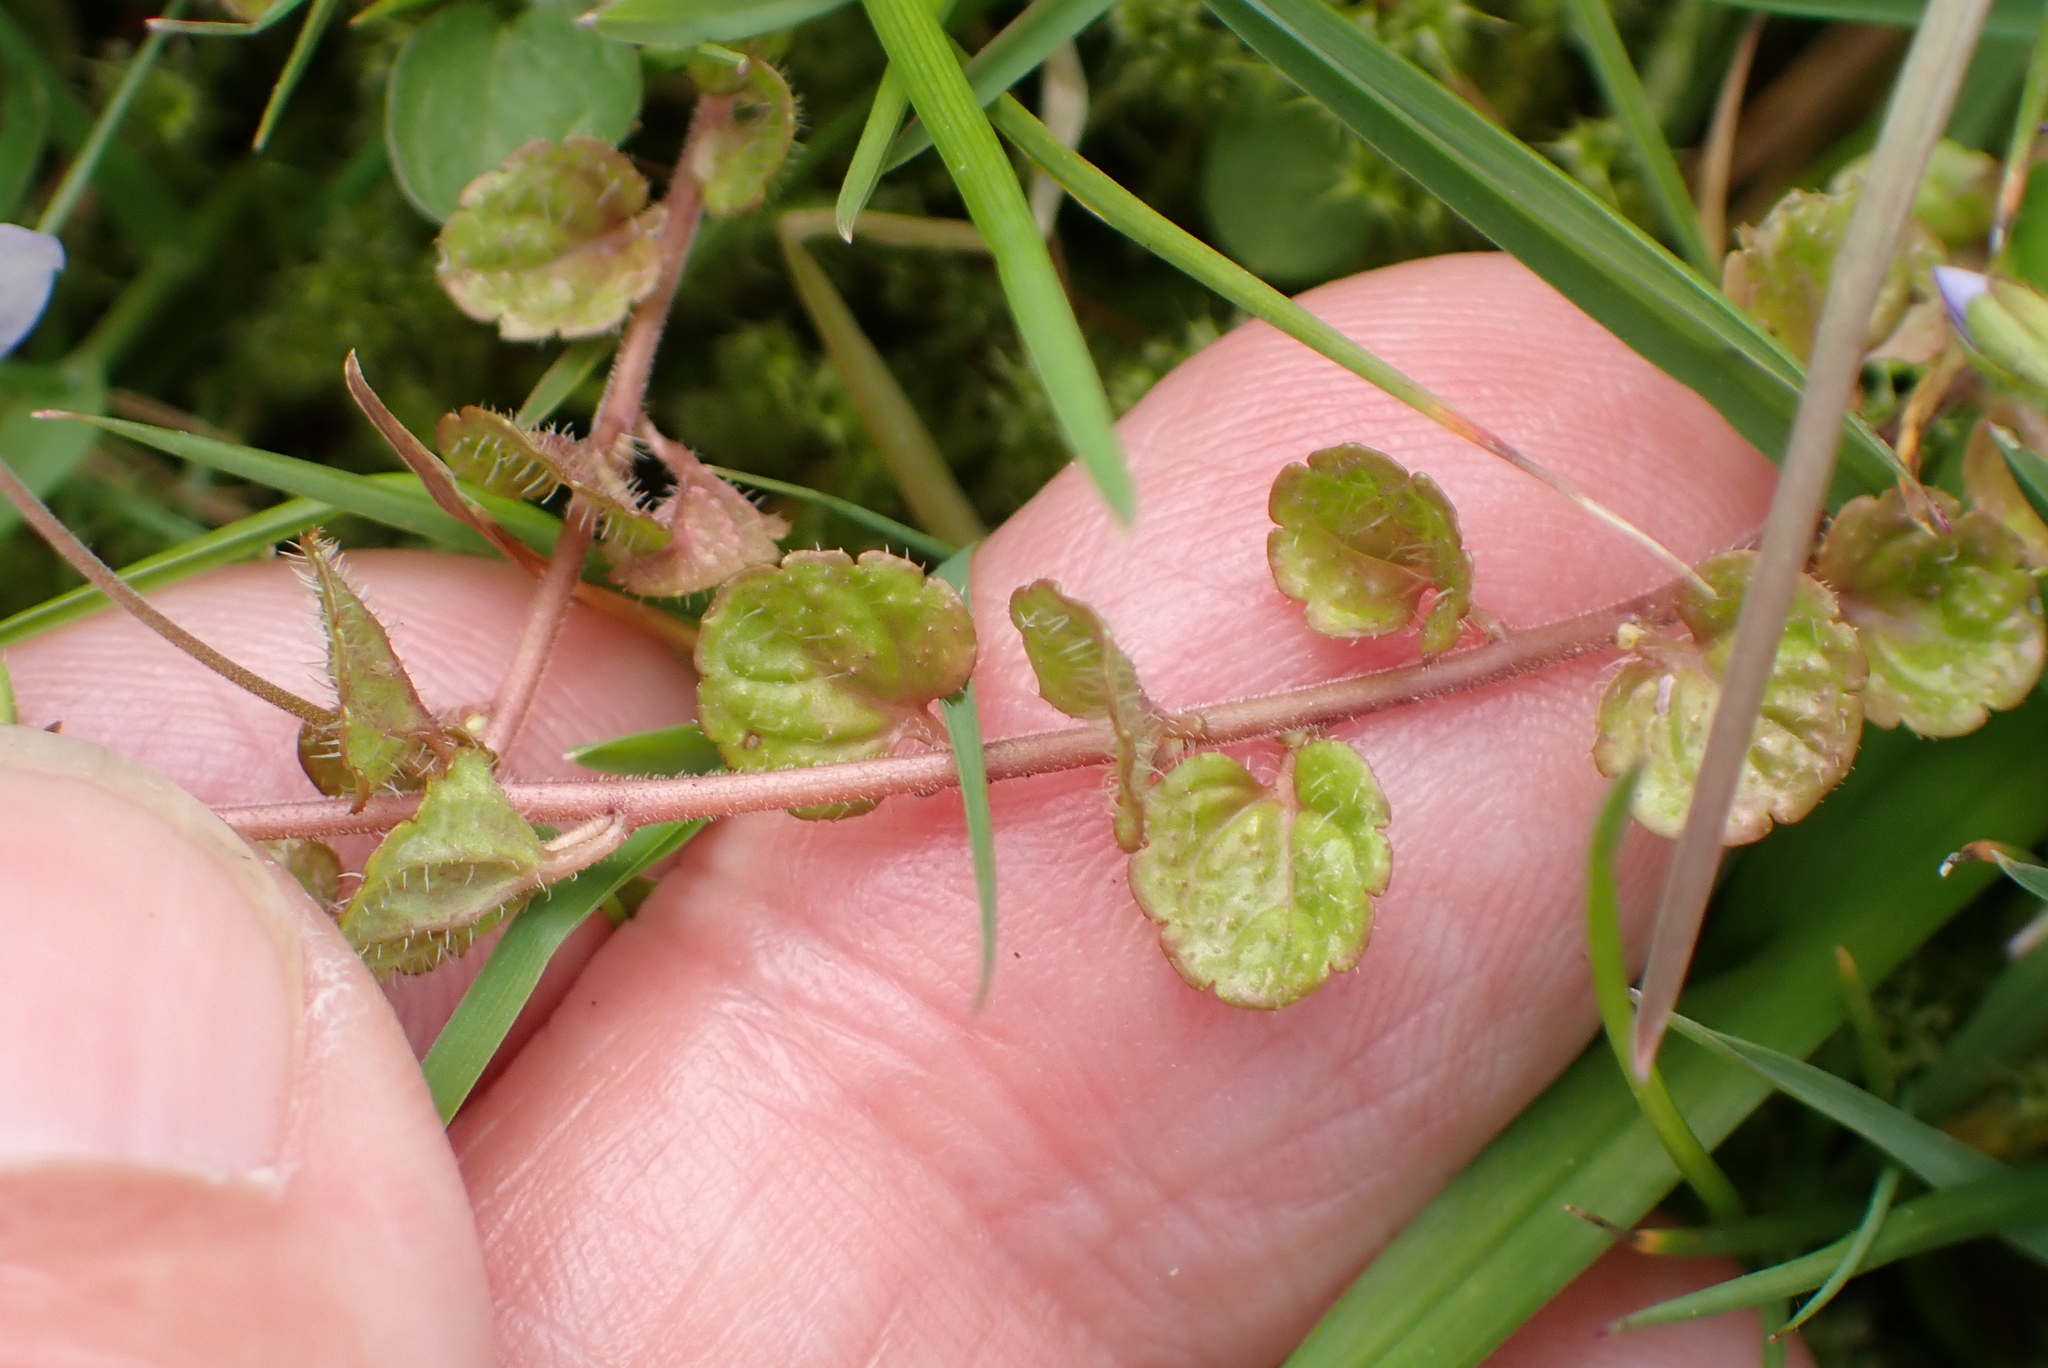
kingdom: Plantae
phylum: Tracheophyta
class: Magnoliopsida
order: Lamiales
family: Plantaginaceae
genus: Veronica
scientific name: Veronica filiformis
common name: Slender speedwell
